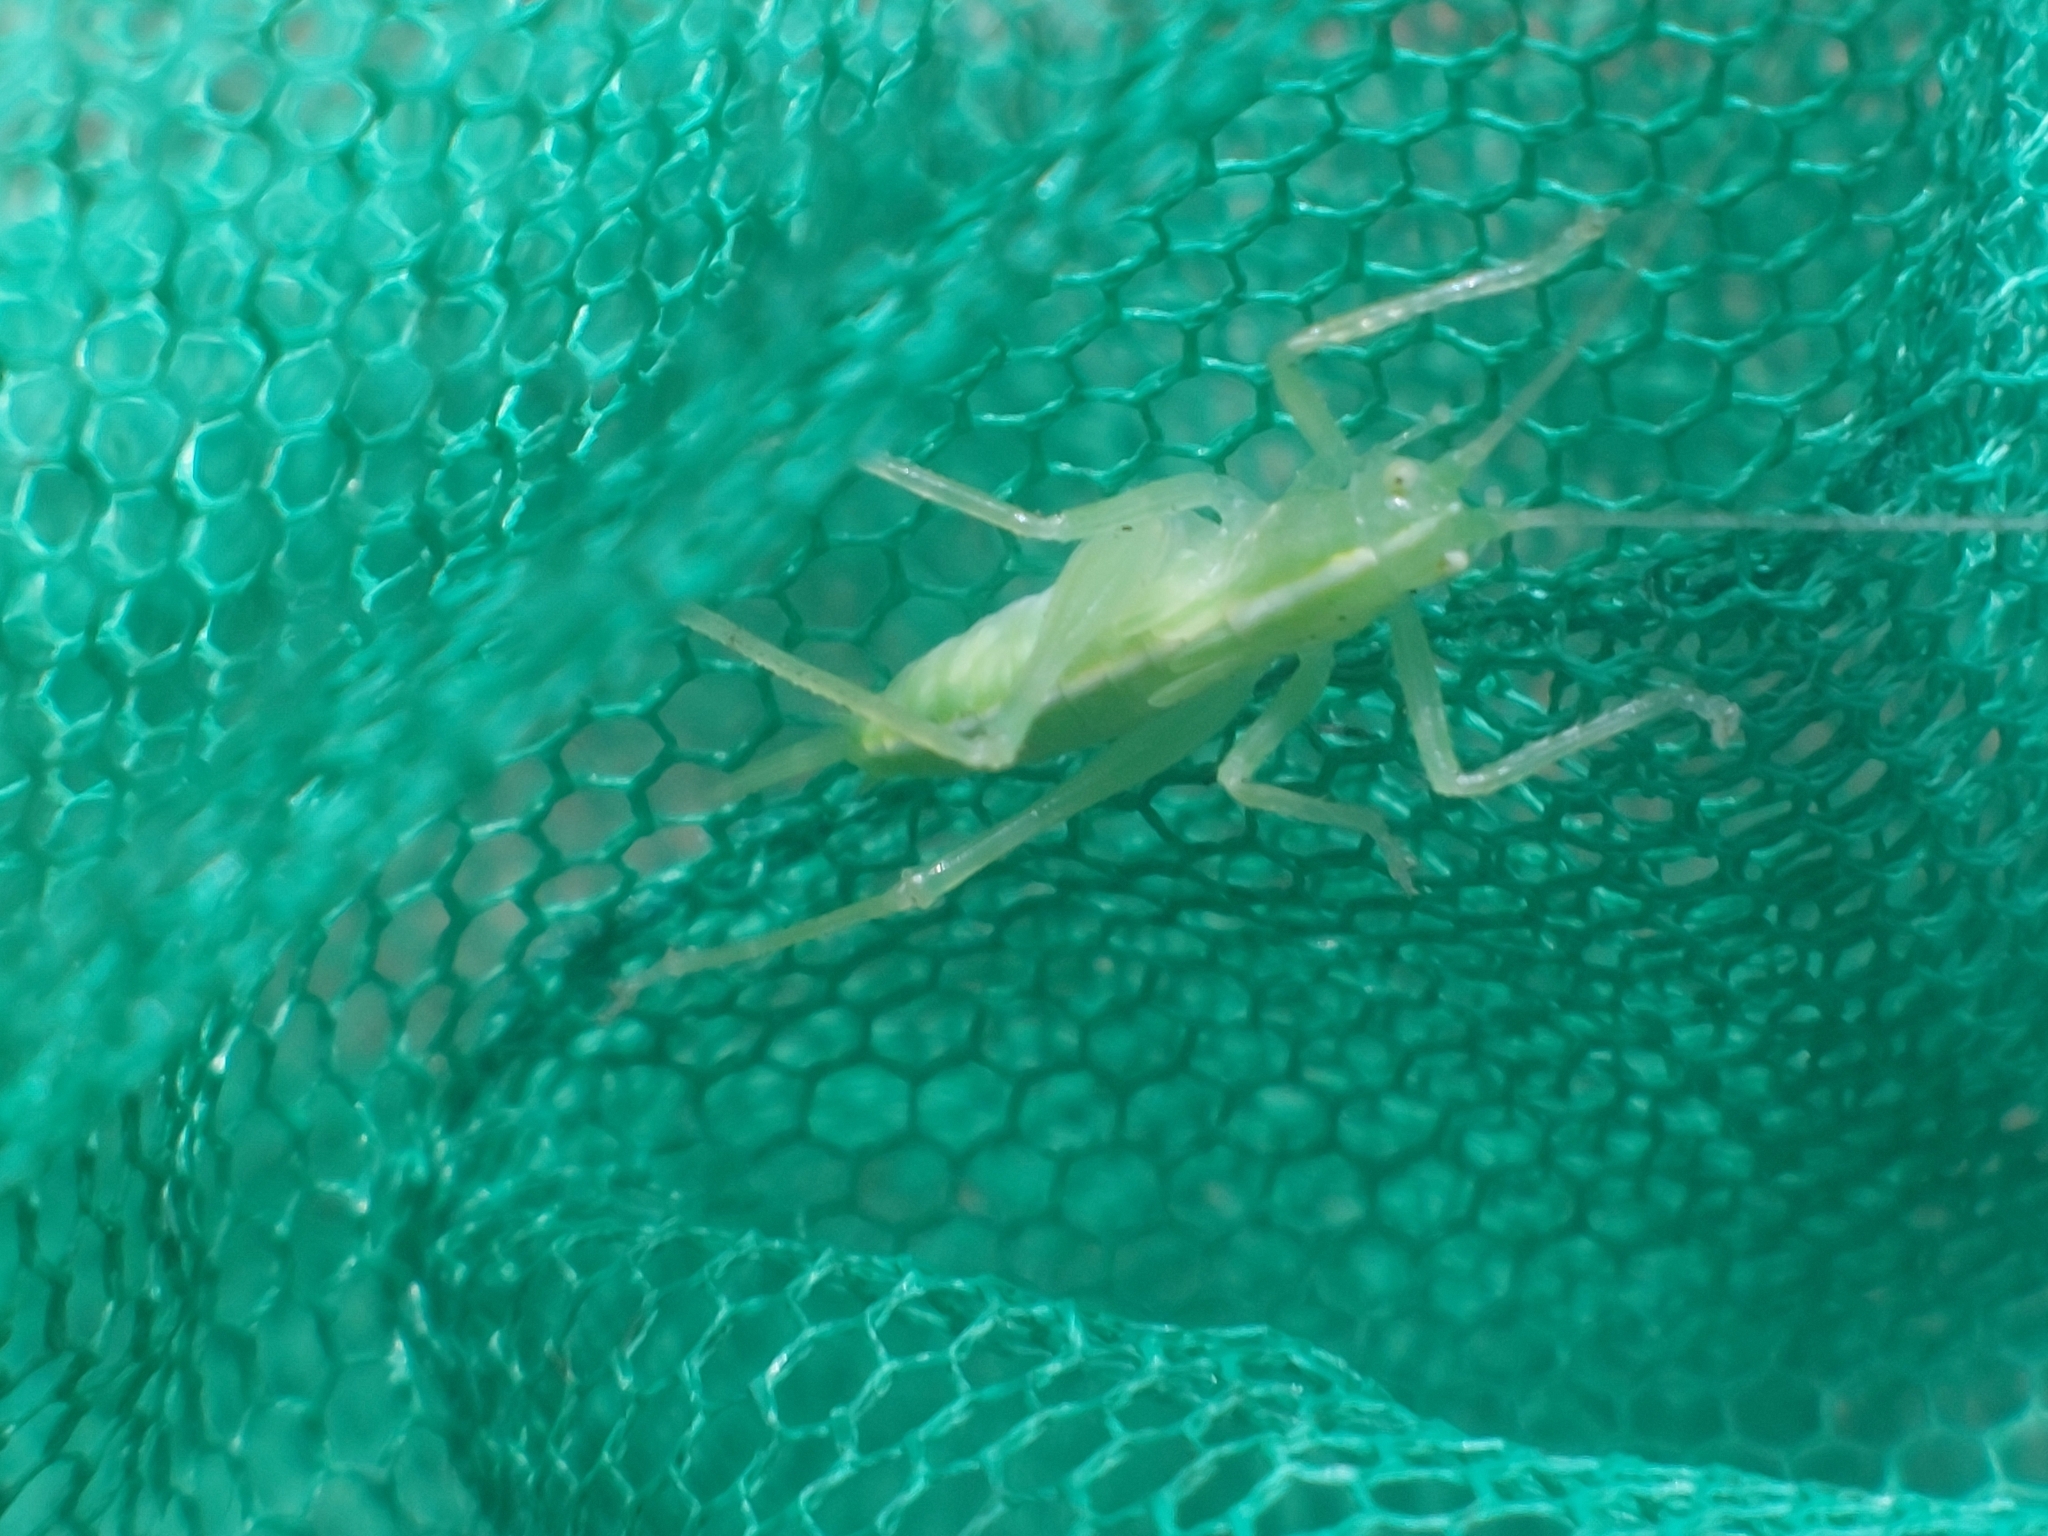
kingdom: Animalia
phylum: Arthropoda
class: Insecta
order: Orthoptera
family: Tettigoniidae
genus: Meconema
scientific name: Meconema thalassinum
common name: Oak bush-cricket
